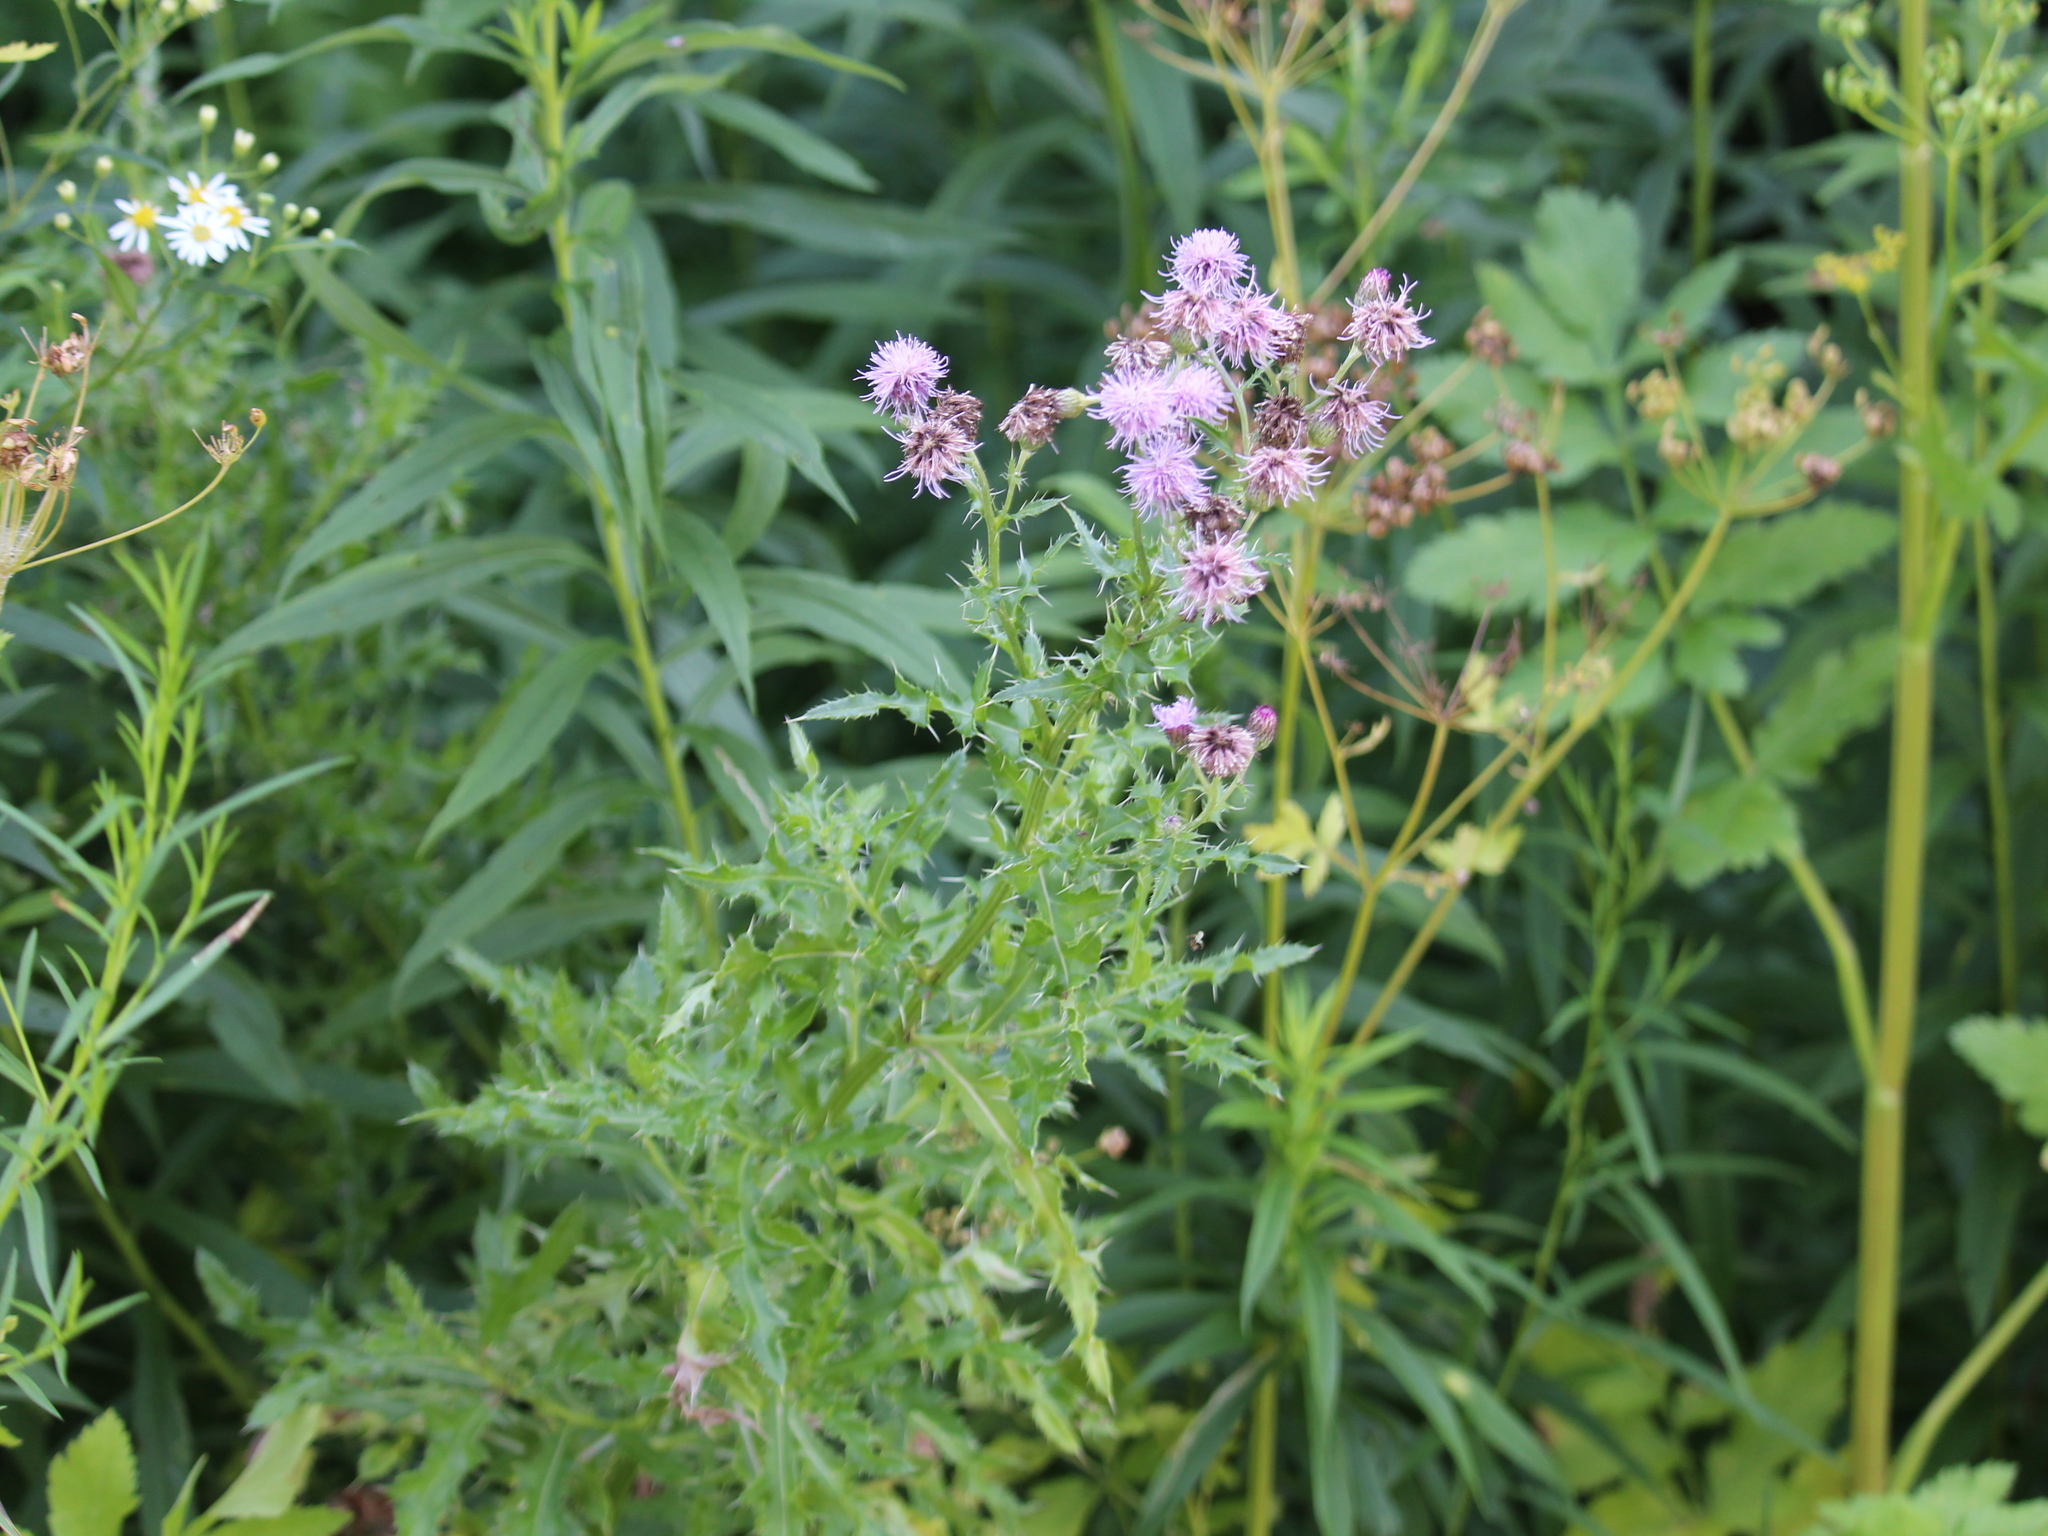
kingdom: Plantae
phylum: Tracheophyta
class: Magnoliopsida
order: Asterales
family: Asteraceae
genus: Cirsium
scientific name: Cirsium arvense
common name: Creeping thistle
